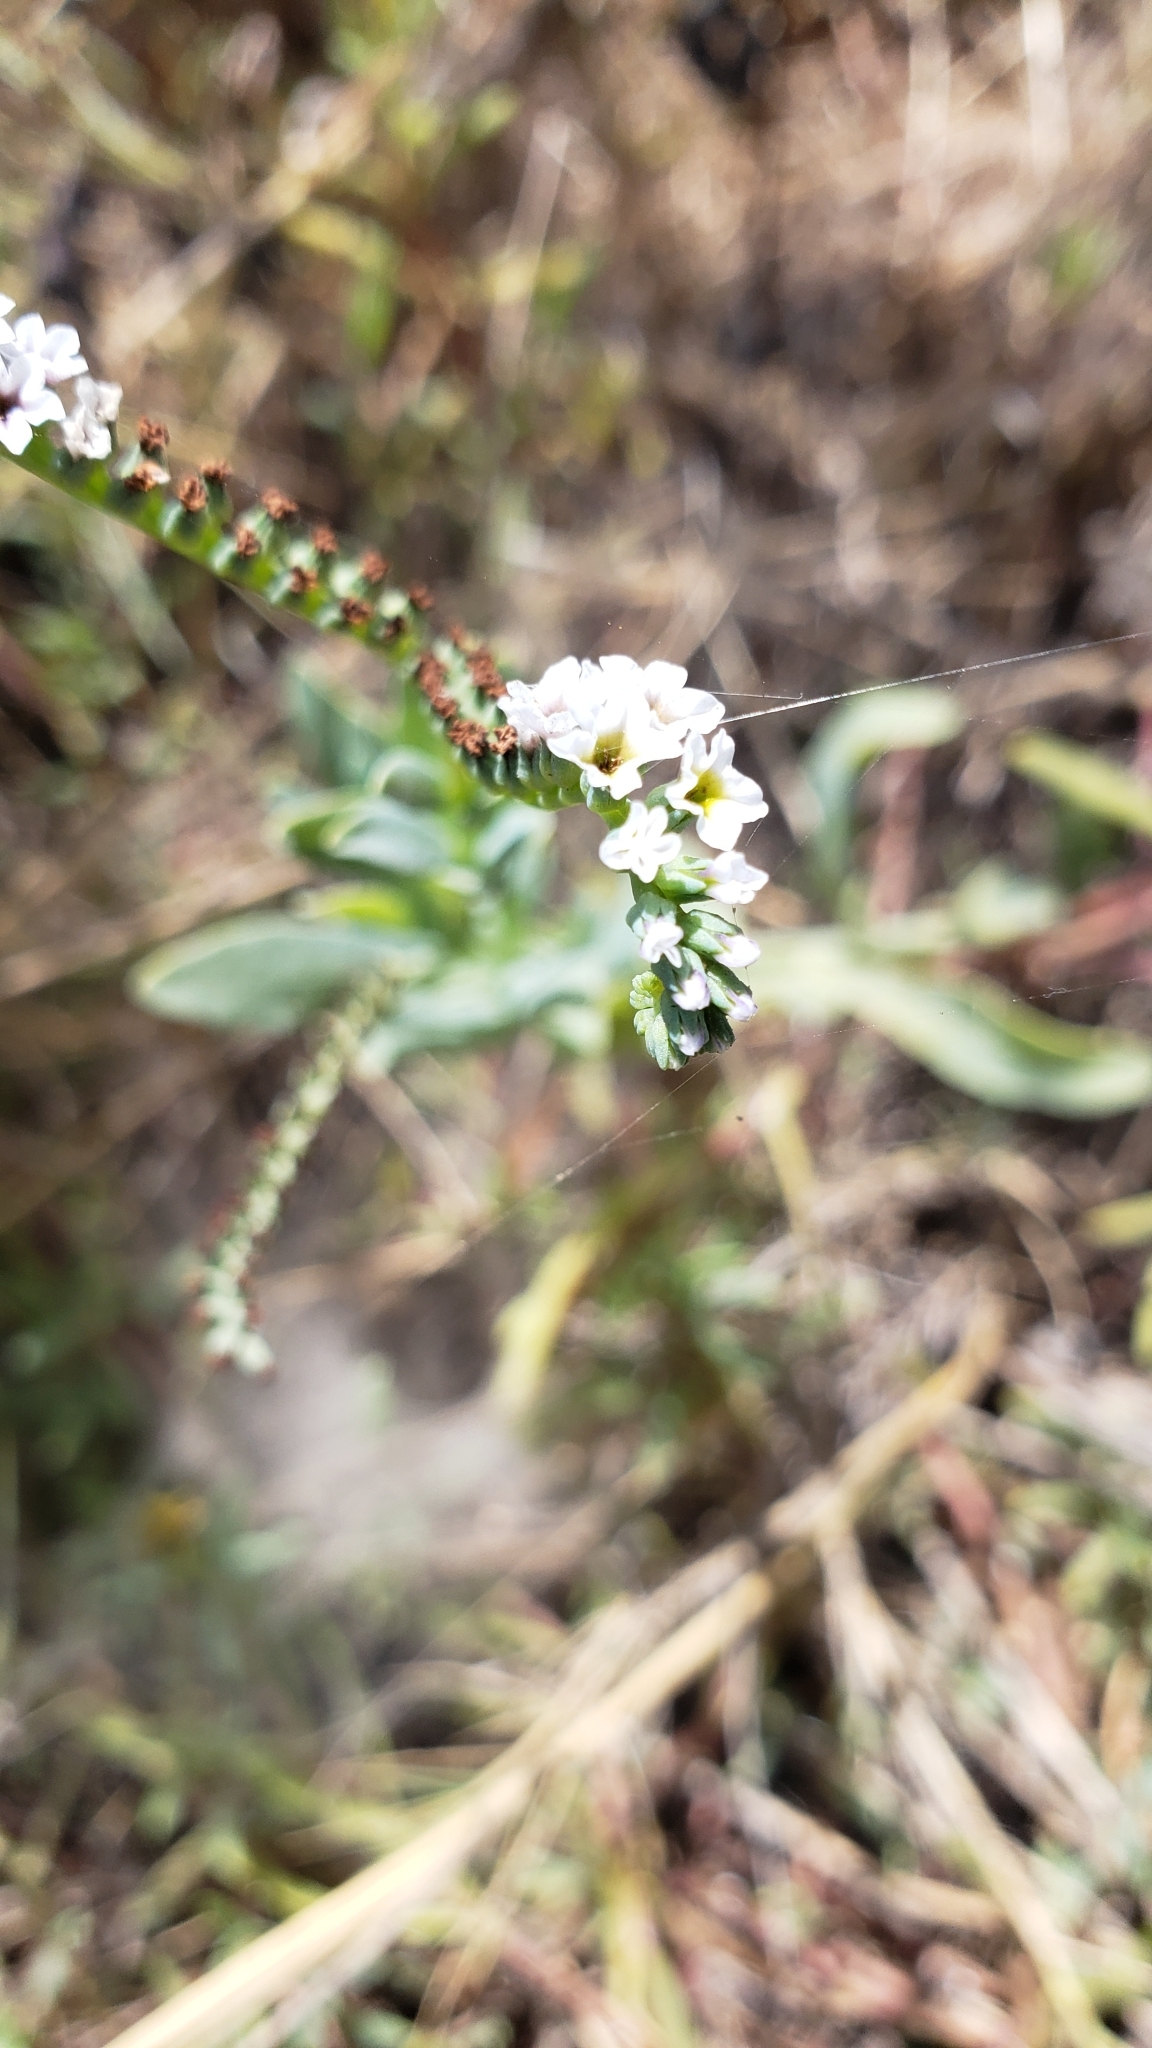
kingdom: Plantae
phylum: Tracheophyta
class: Magnoliopsida
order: Boraginales
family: Heliotropiaceae
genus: Heliotropium
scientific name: Heliotropium curassavicum
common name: Seaside heliotrope
